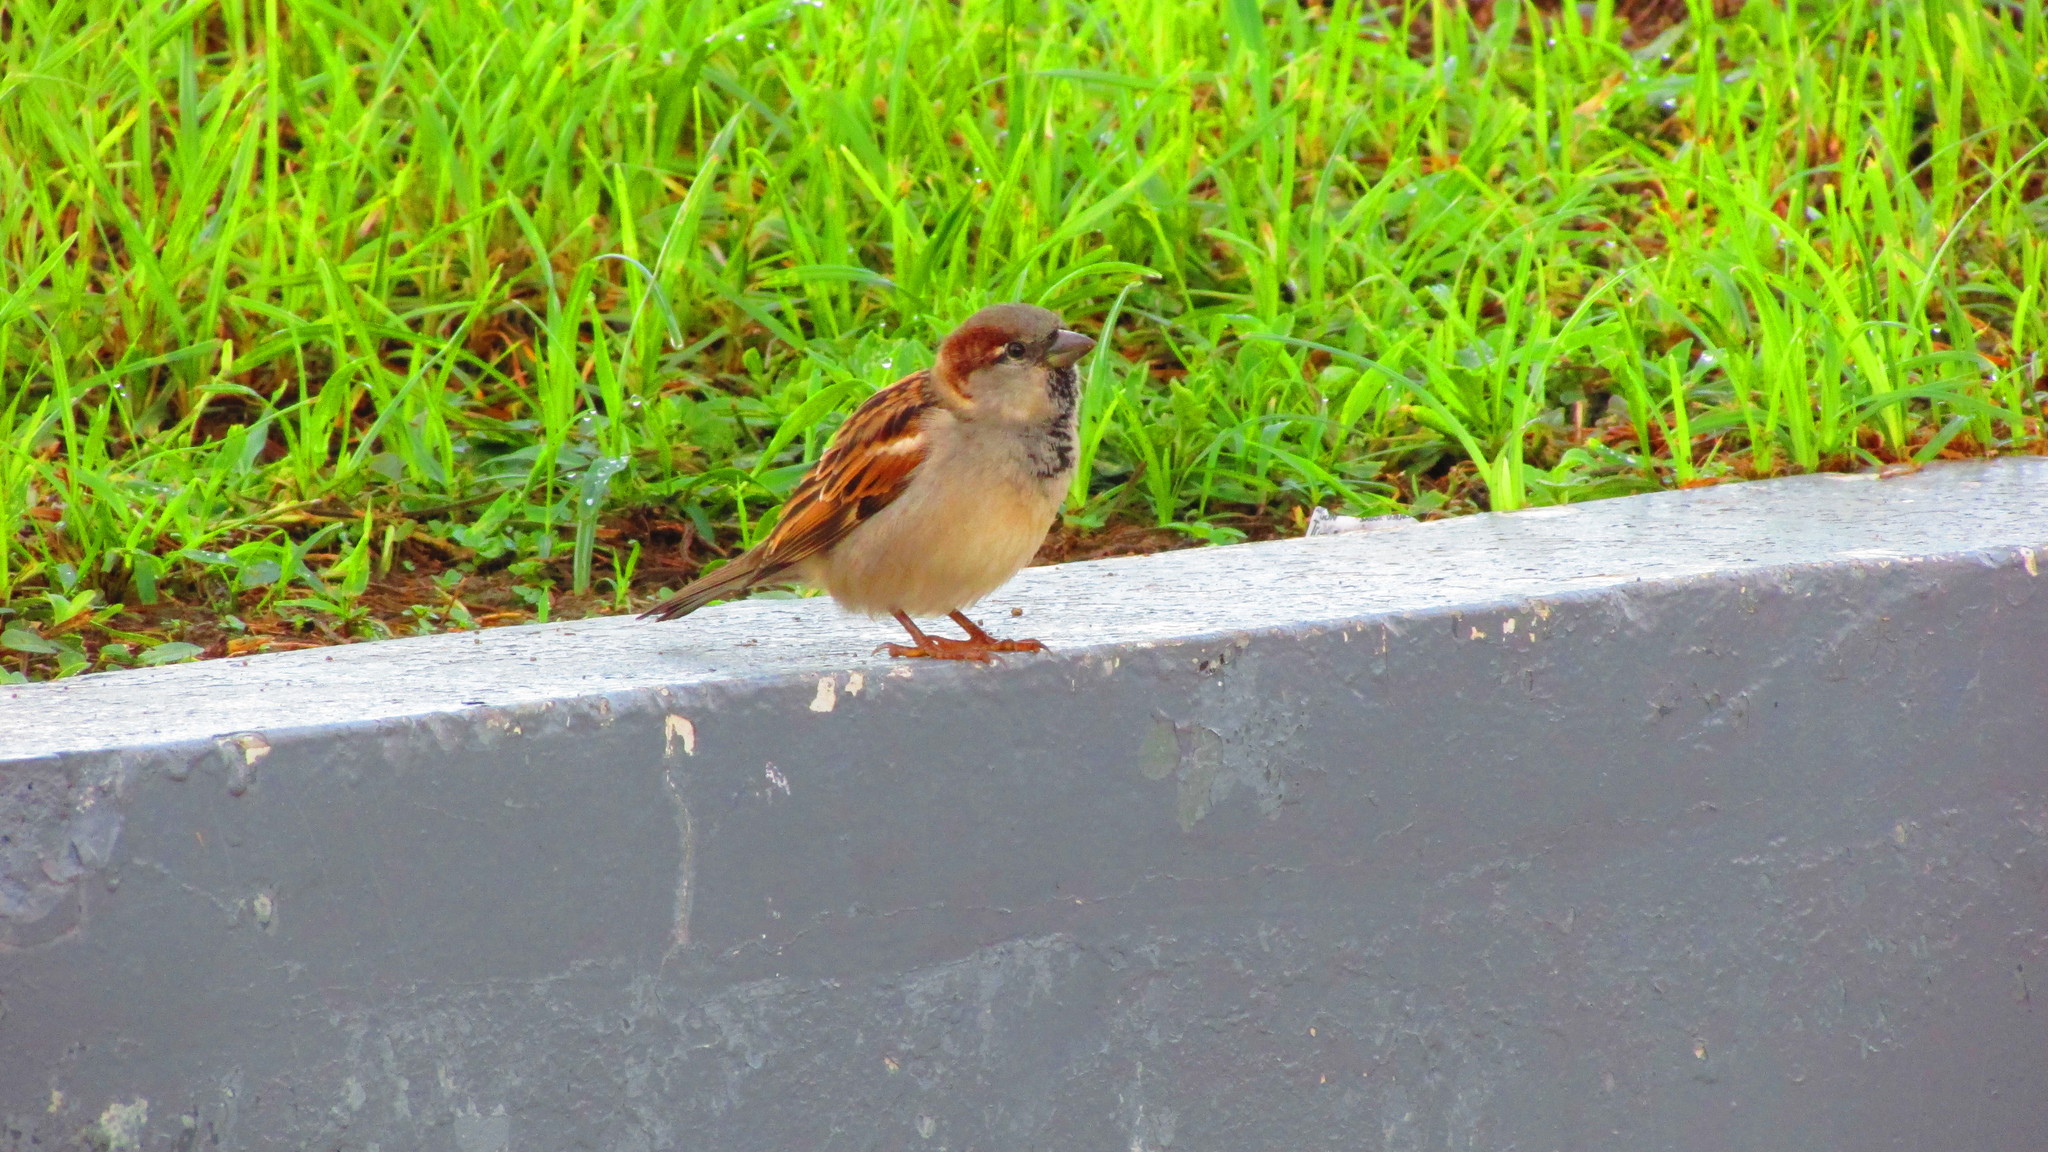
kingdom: Animalia
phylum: Chordata
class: Aves
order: Passeriformes
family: Passeridae
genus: Passer
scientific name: Passer domesticus
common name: House sparrow
